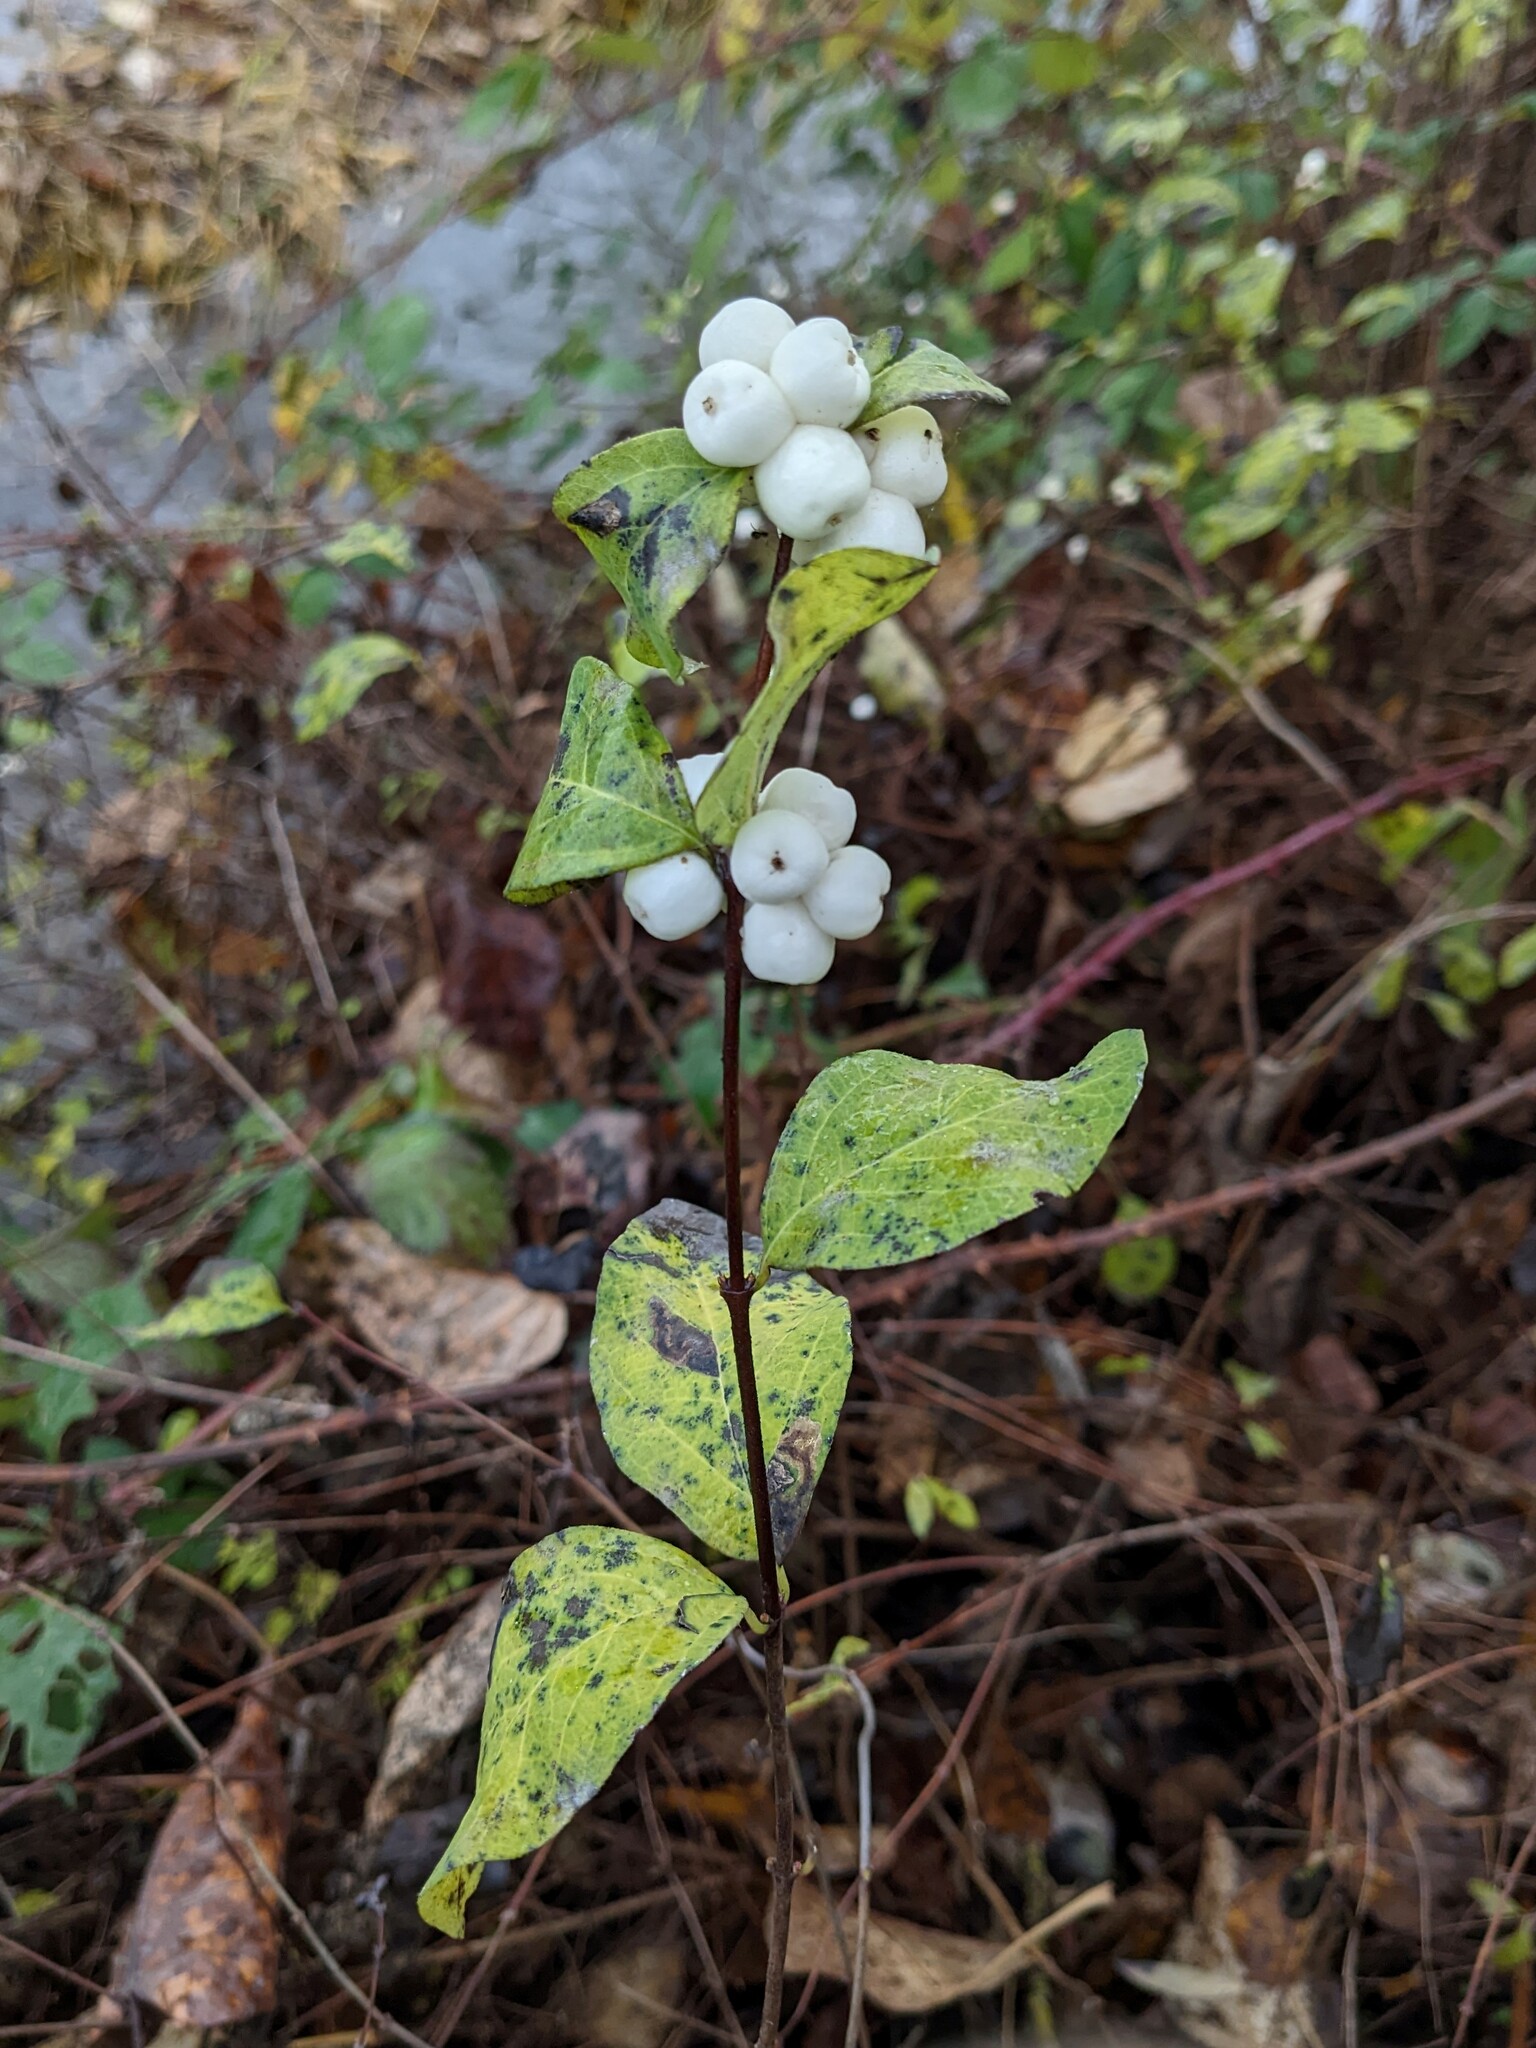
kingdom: Plantae
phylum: Tracheophyta
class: Magnoliopsida
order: Dipsacales
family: Caprifoliaceae
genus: Symphoricarpos
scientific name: Symphoricarpos albus
